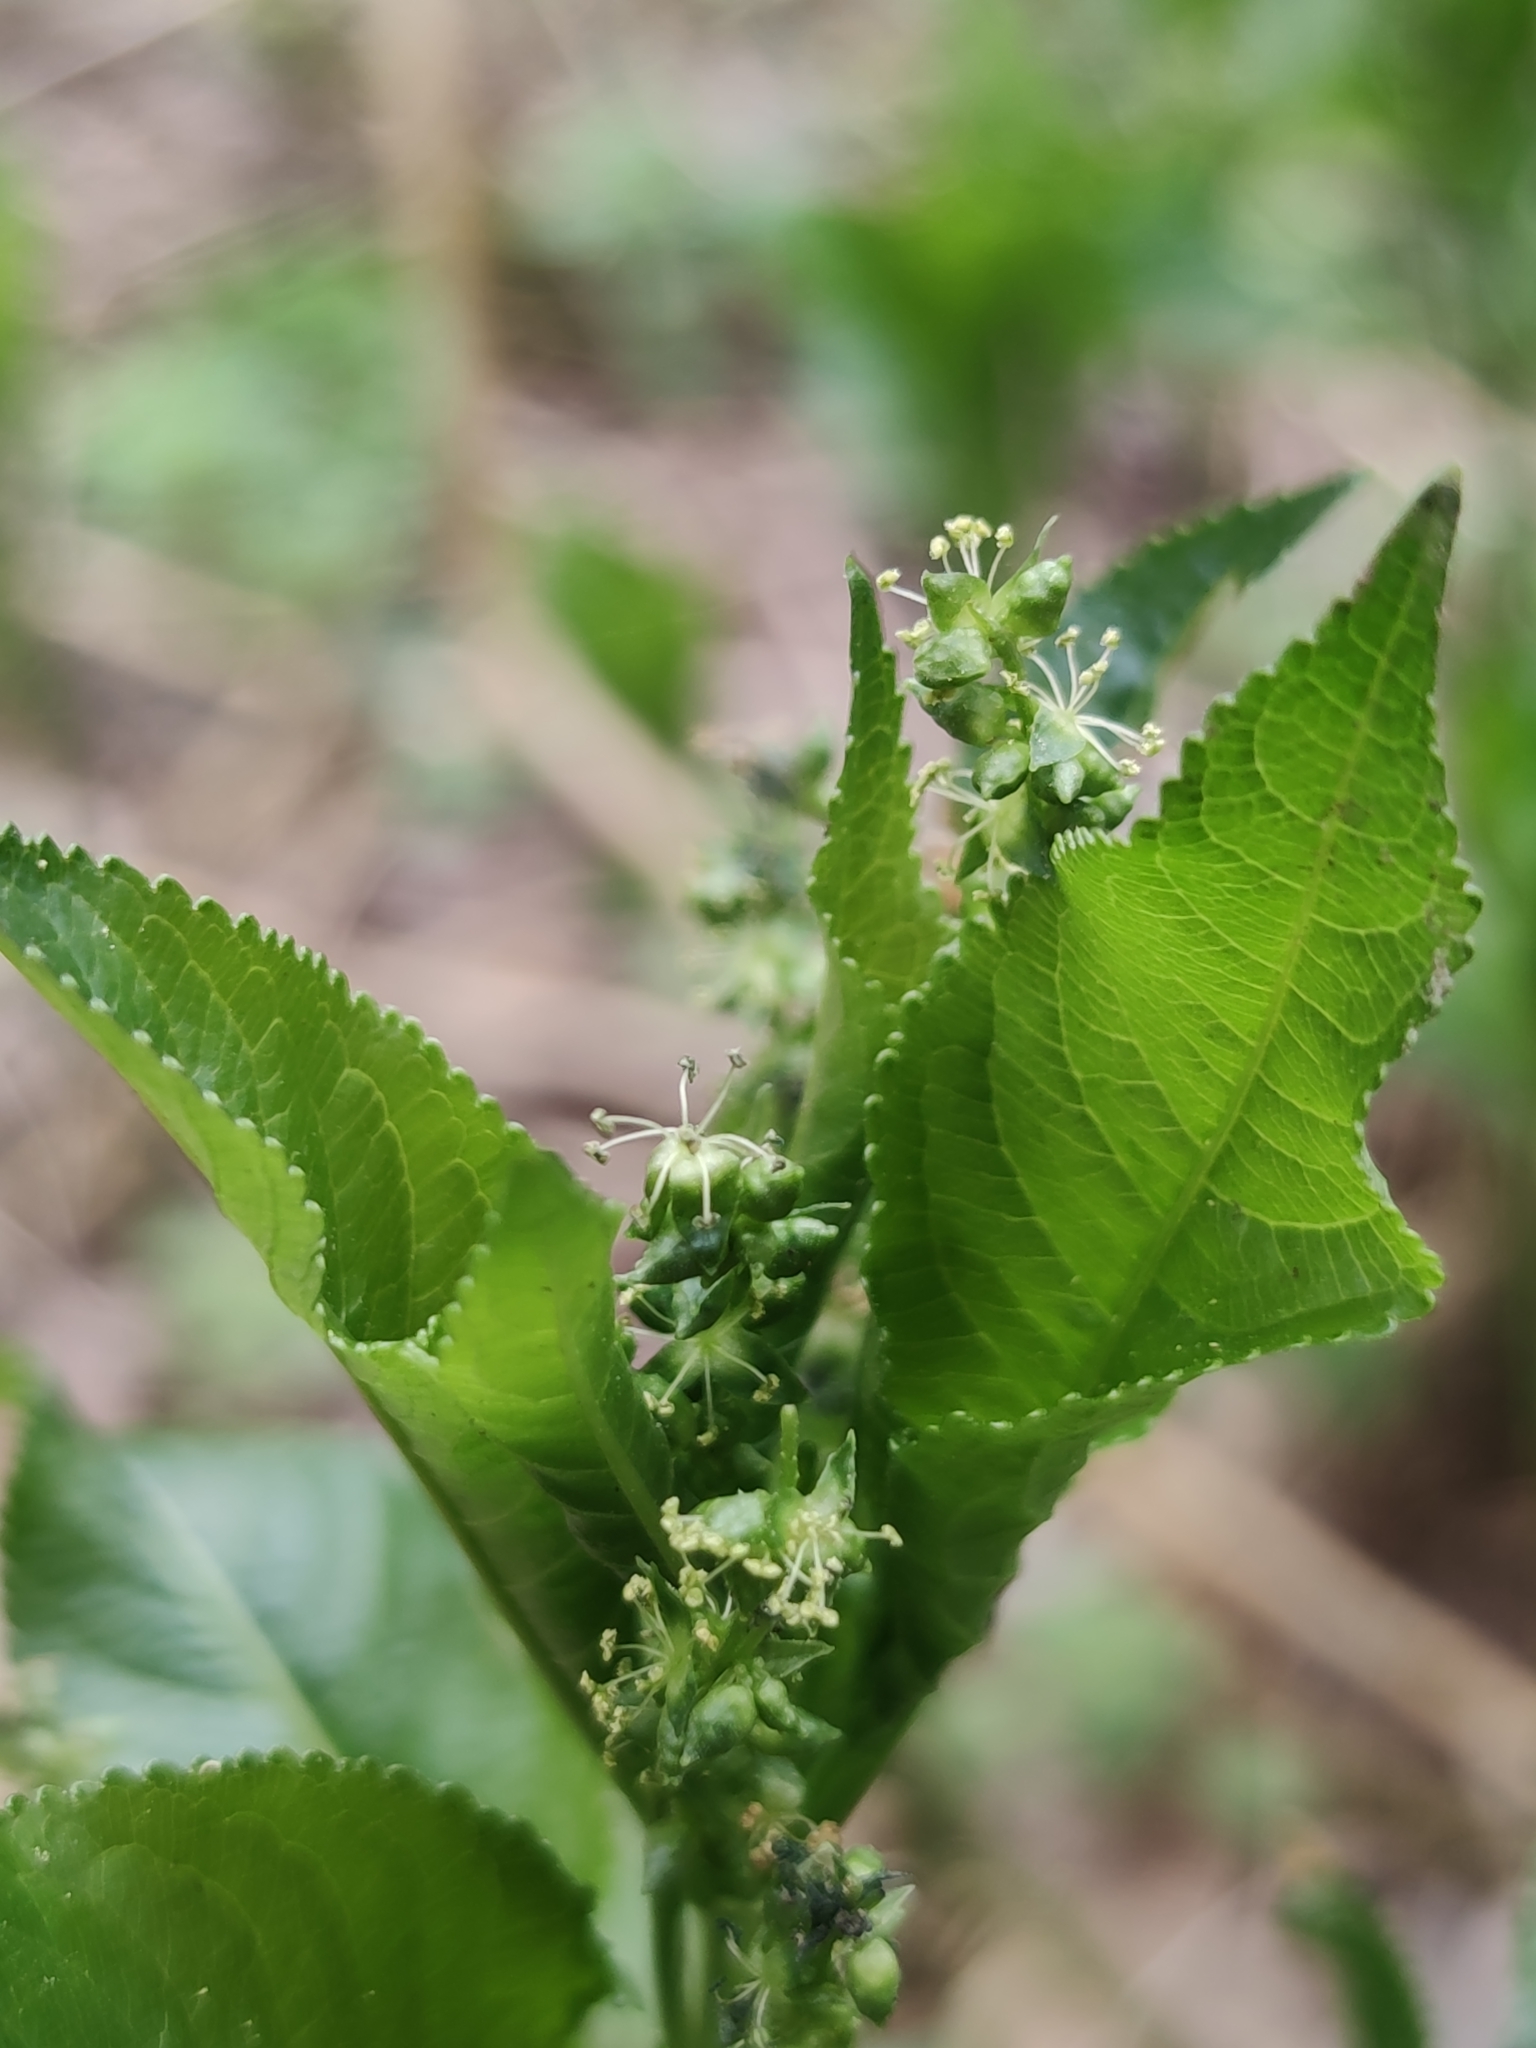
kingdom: Plantae
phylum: Tracheophyta
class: Magnoliopsida
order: Malpighiales
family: Euphorbiaceae
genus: Mercurialis
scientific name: Mercurialis perennis
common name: Dog mercury
